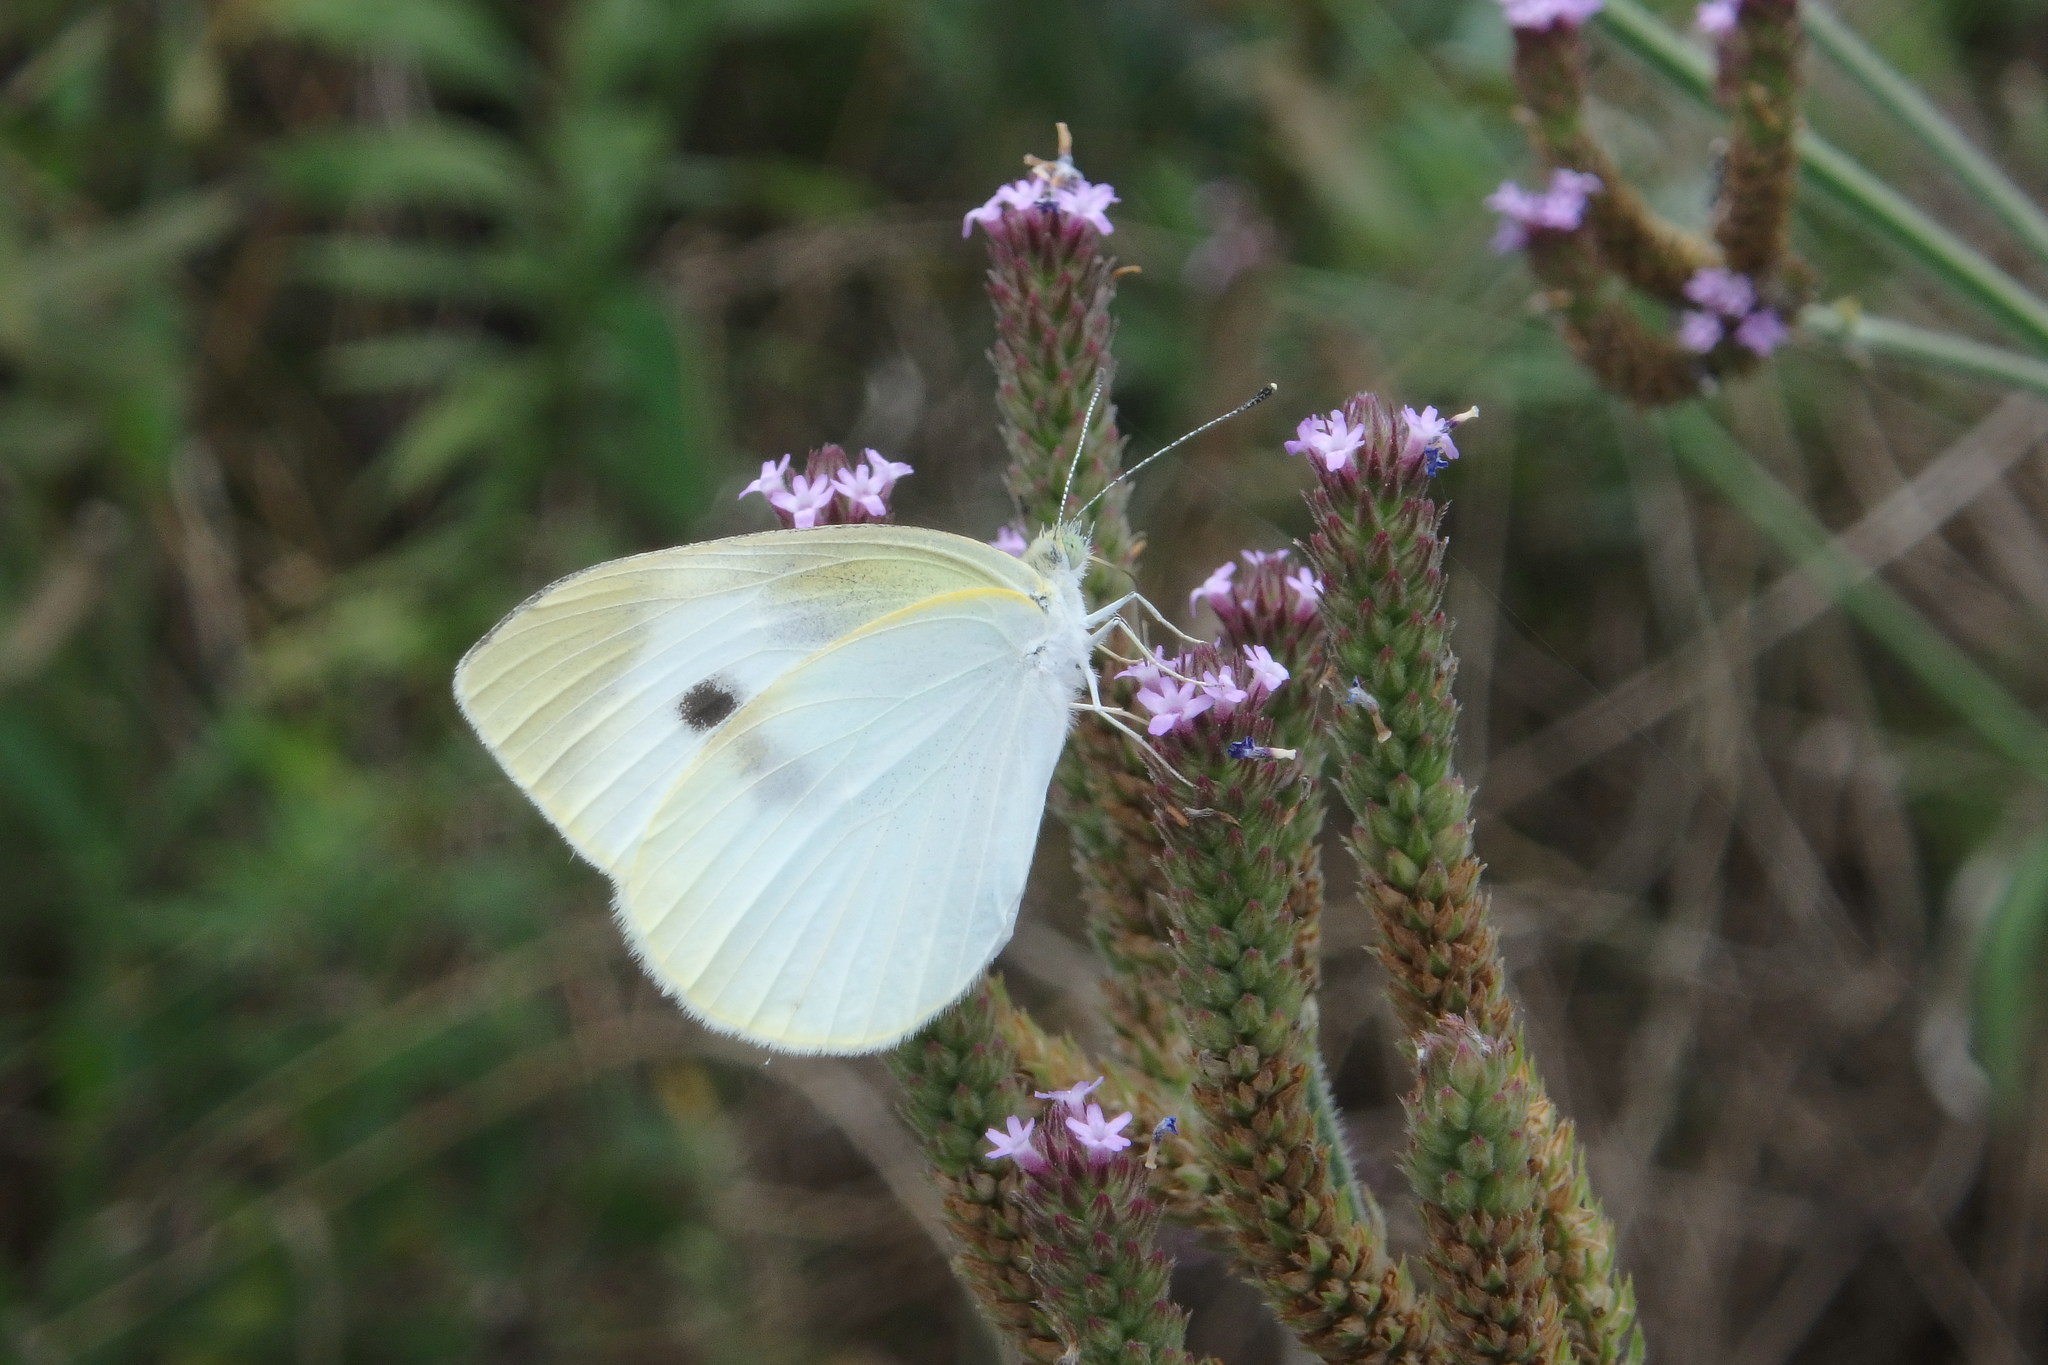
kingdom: Animalia
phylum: Arthropoda
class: Insecta
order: Lepidoptera
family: Pieridae
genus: Pieris
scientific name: Pieris rapae
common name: Small white
